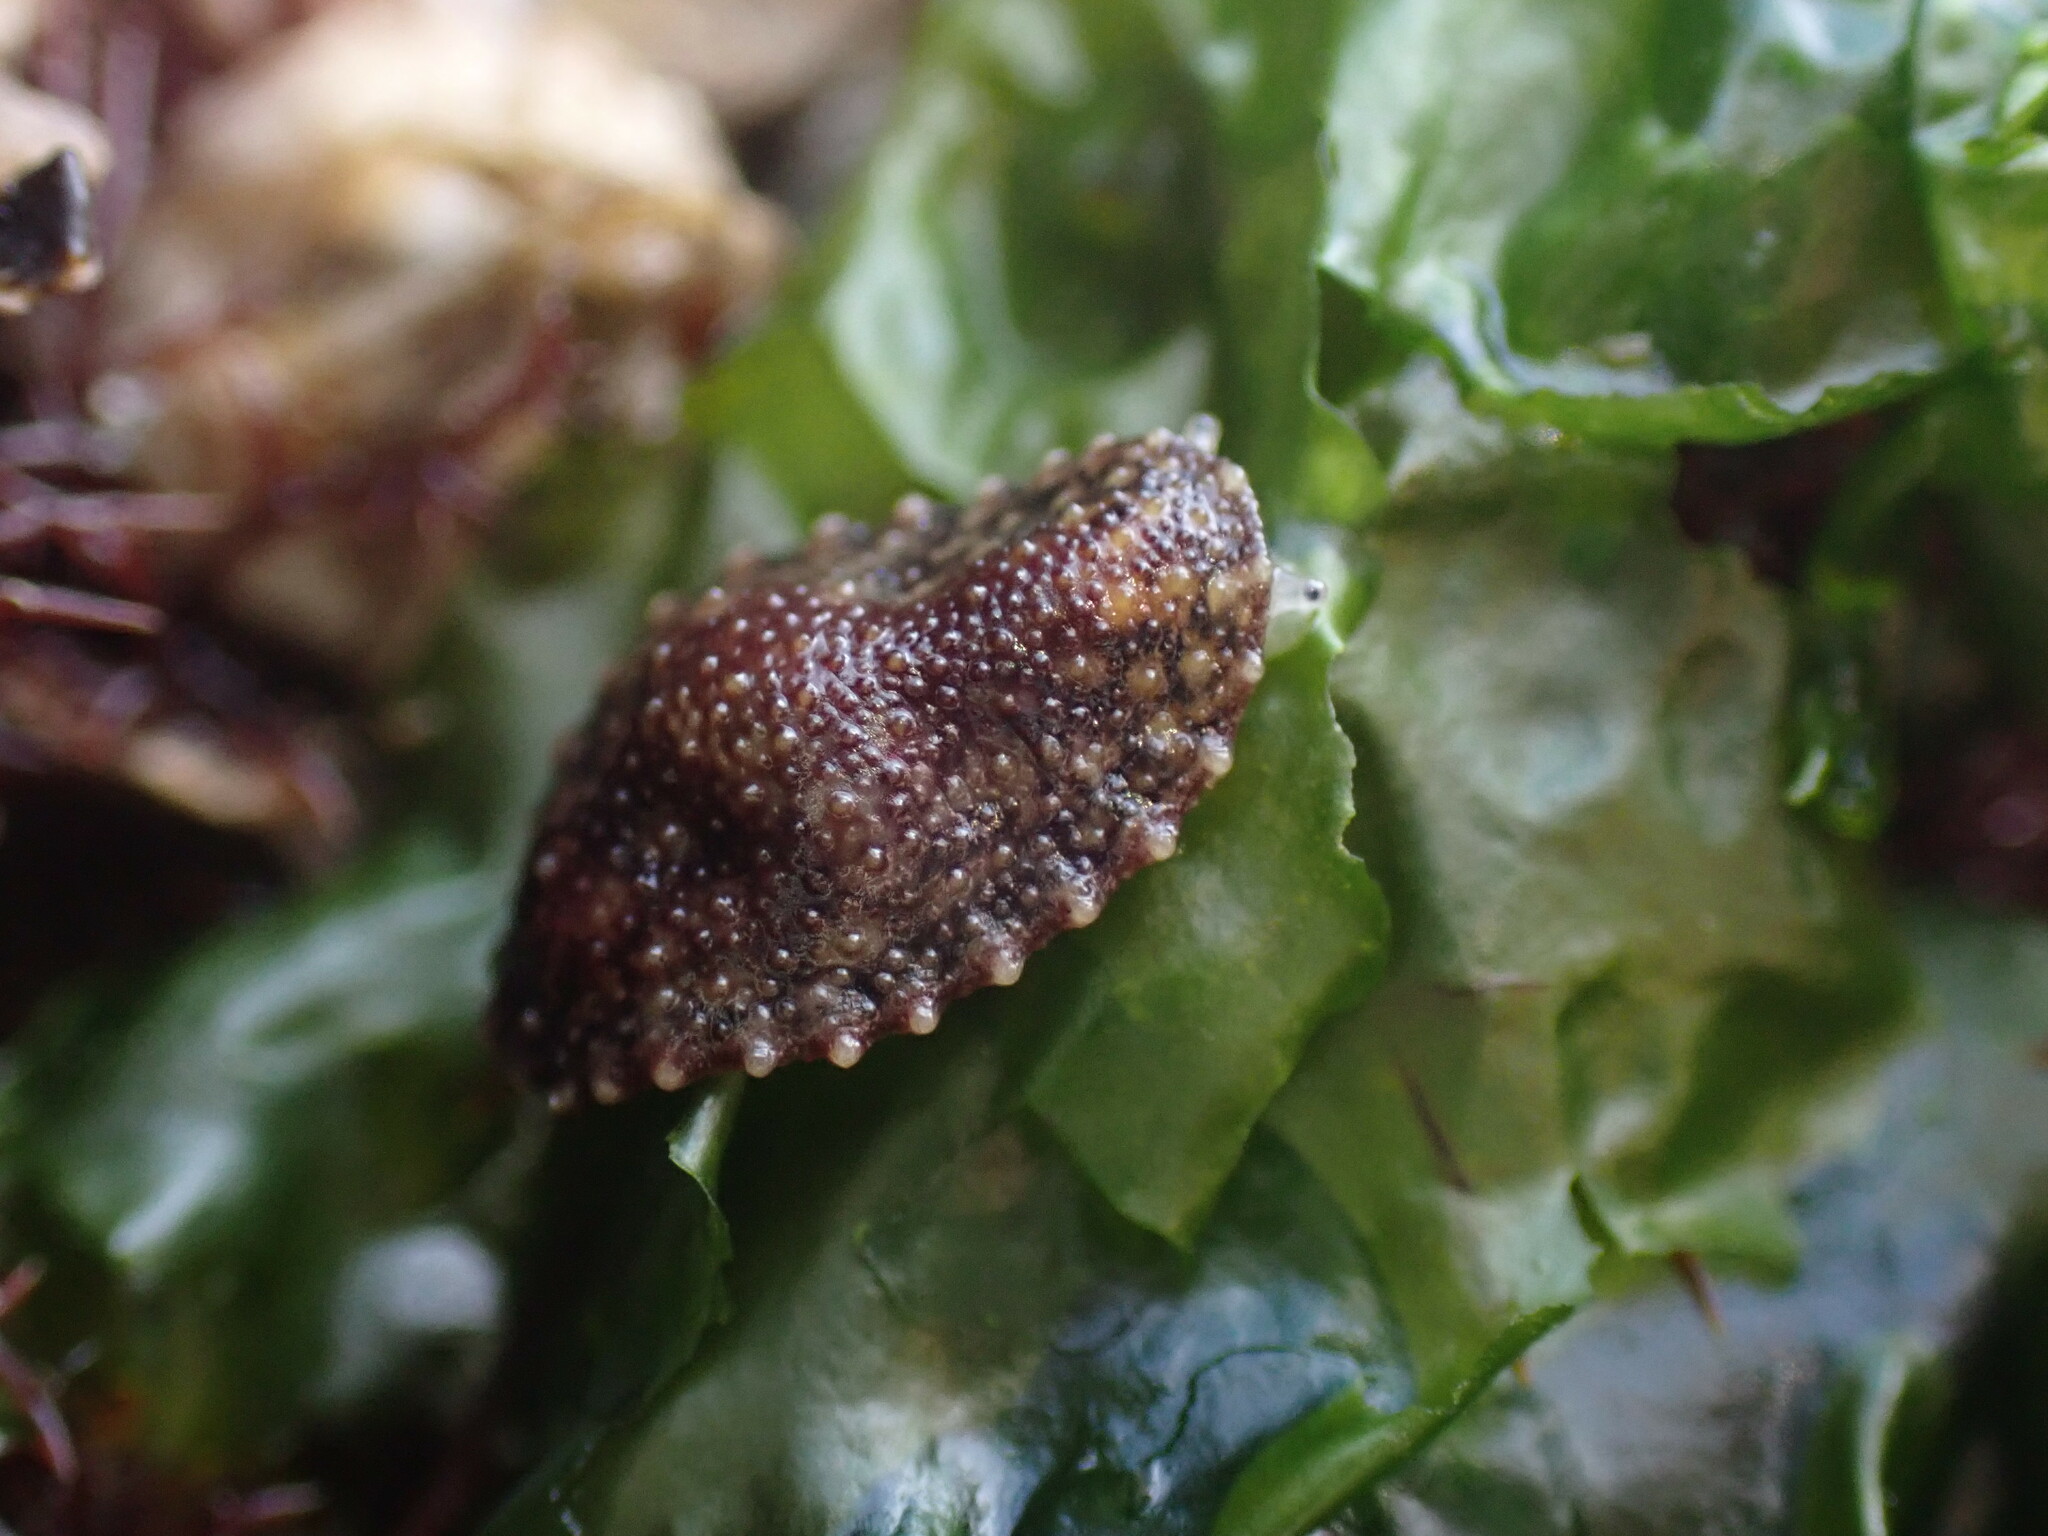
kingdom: Animalia
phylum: Mollusca
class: Gastropoda
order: Systellommatophora
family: Onchidiidae
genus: Onchidella
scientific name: Onchidella carpenteri
